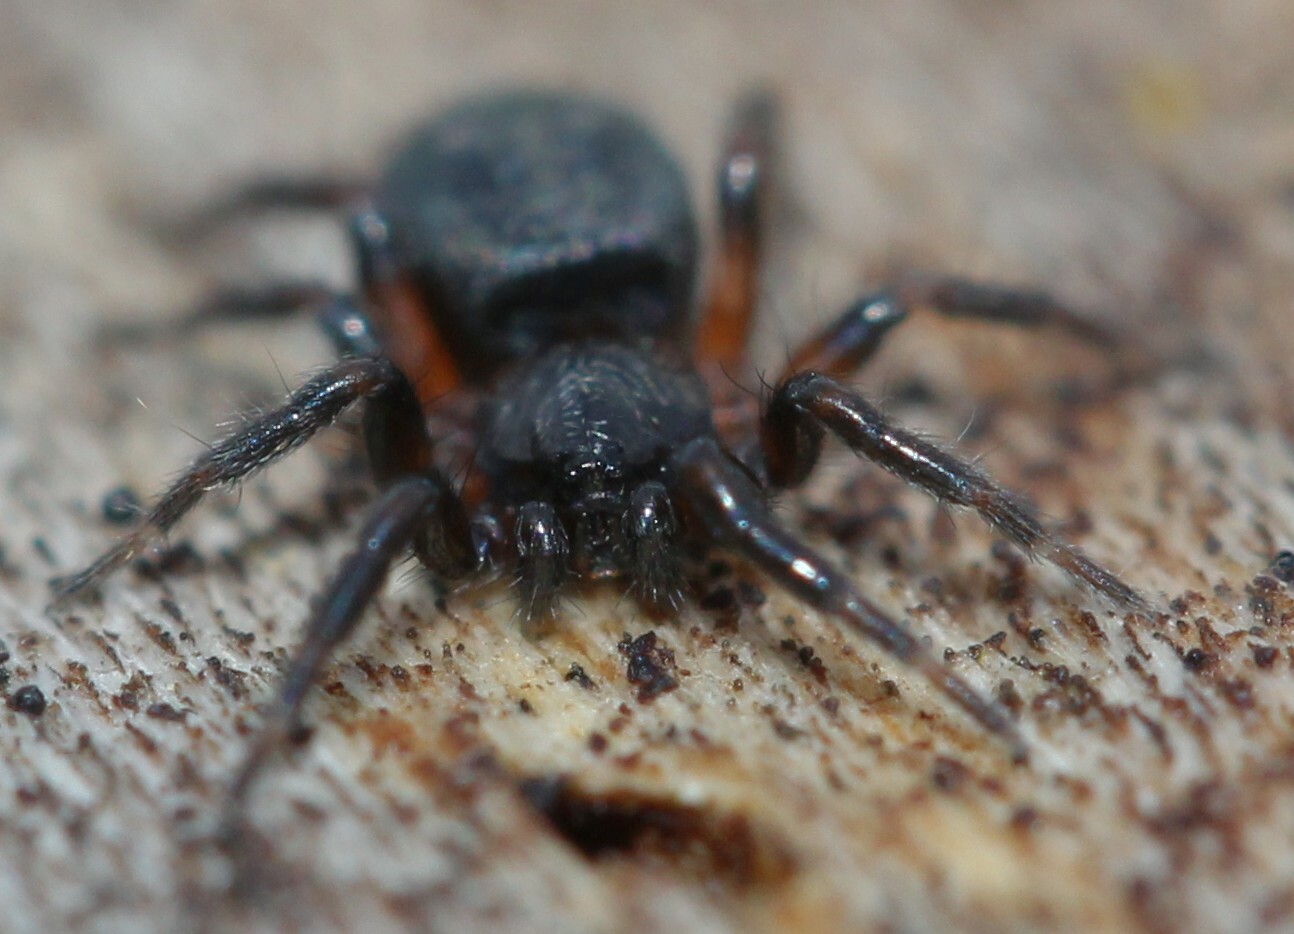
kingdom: Animalia
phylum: Arthropoda
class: Arachnida
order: Araneae
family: Gnaphosidae
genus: Callilepis
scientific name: Callilepis
